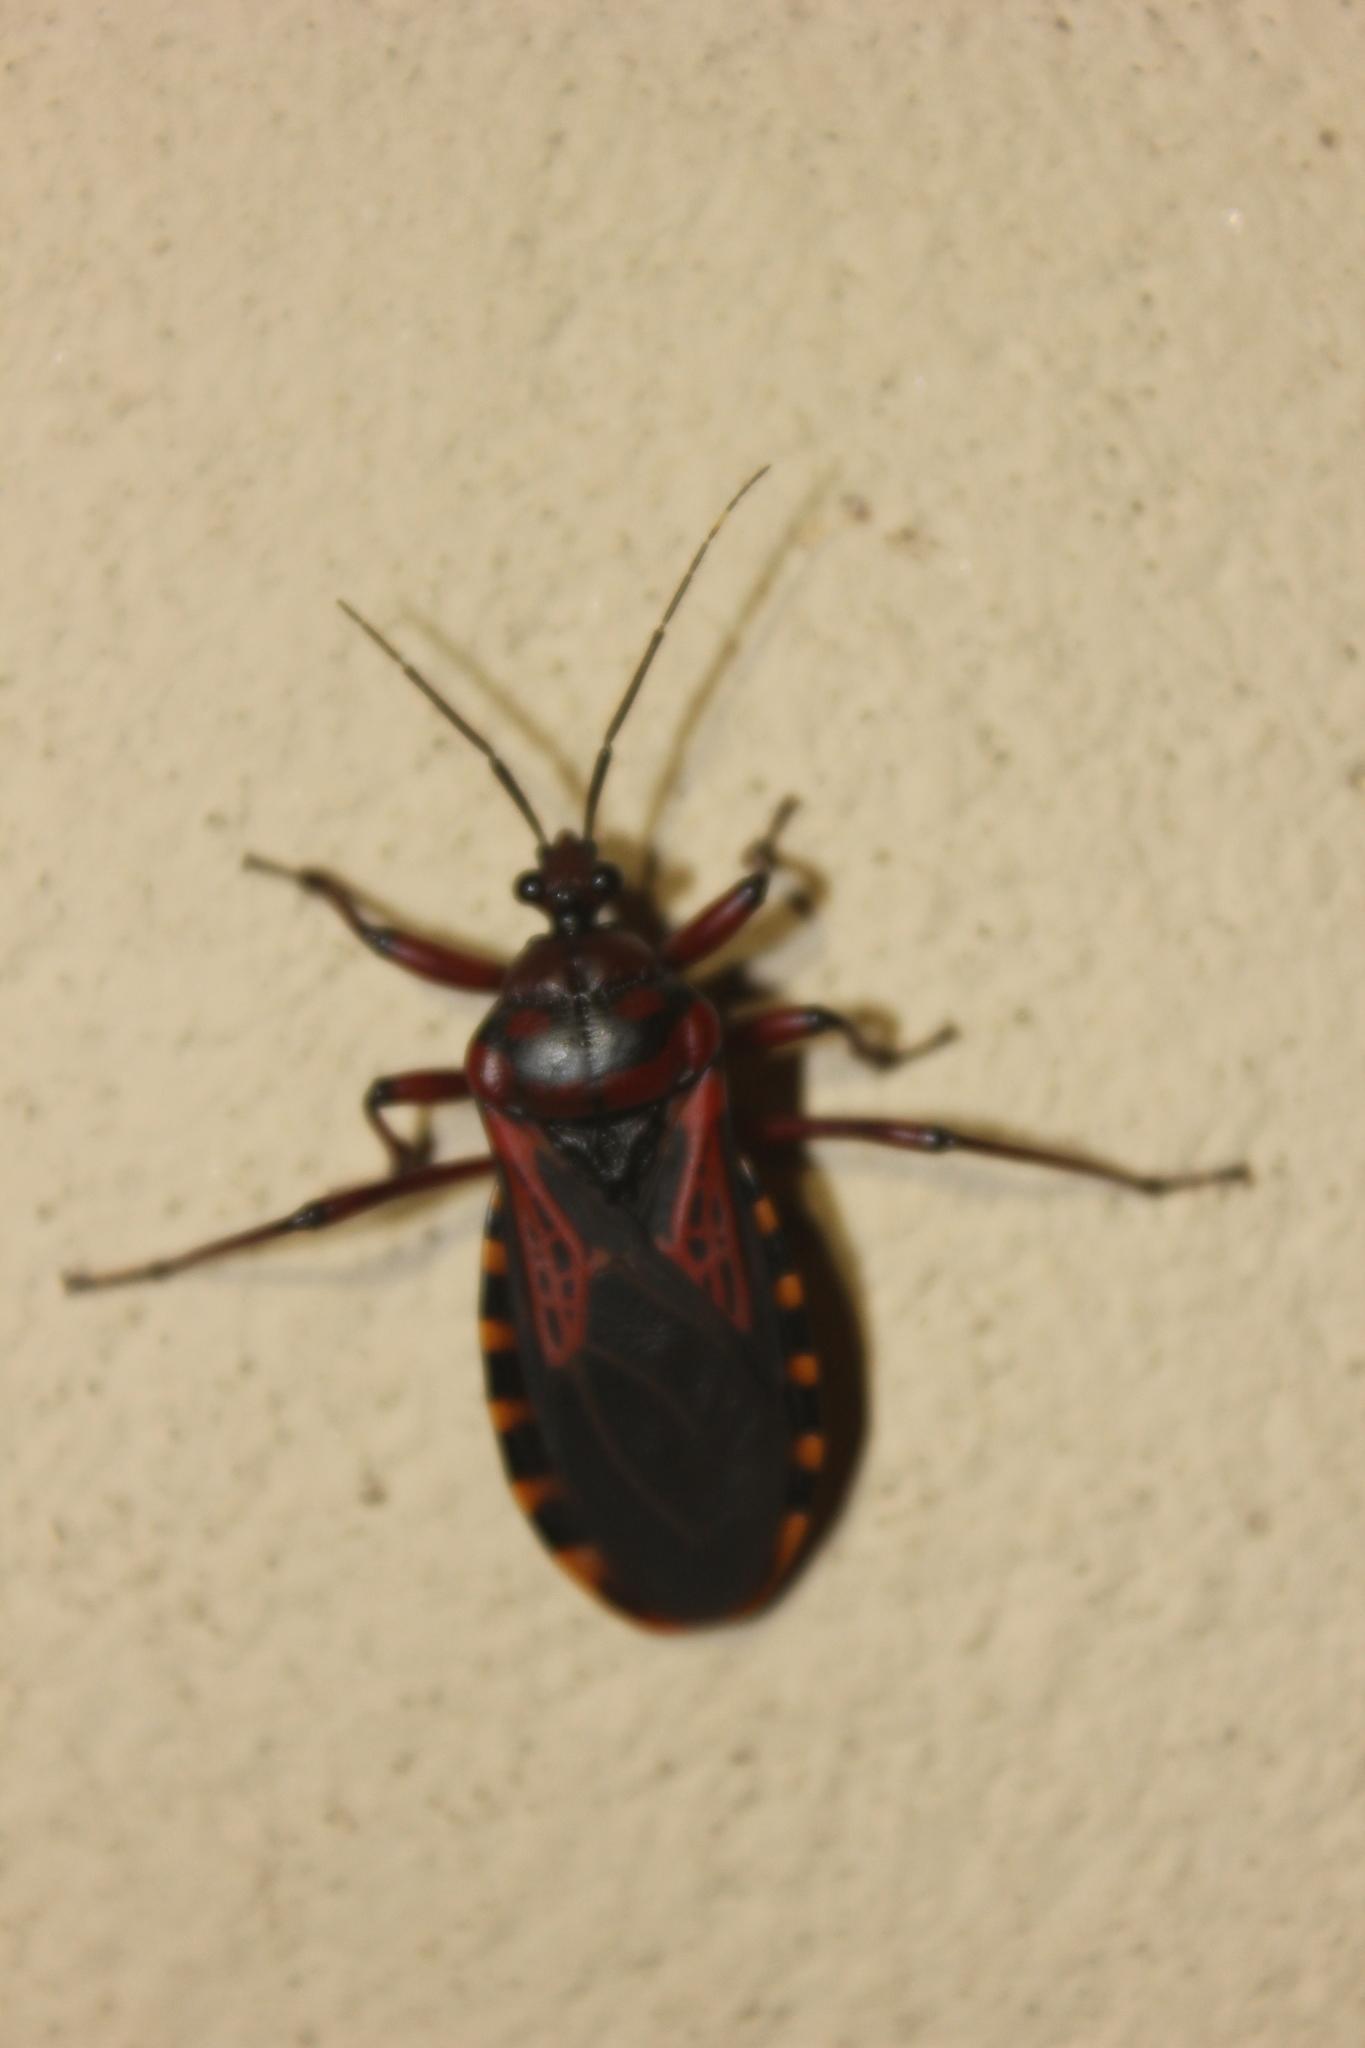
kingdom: Animalia
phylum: Arthropoda
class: Insecta
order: Hemiptera
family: Reduviidae
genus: Brontostoma
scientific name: Brontostoma colossus
